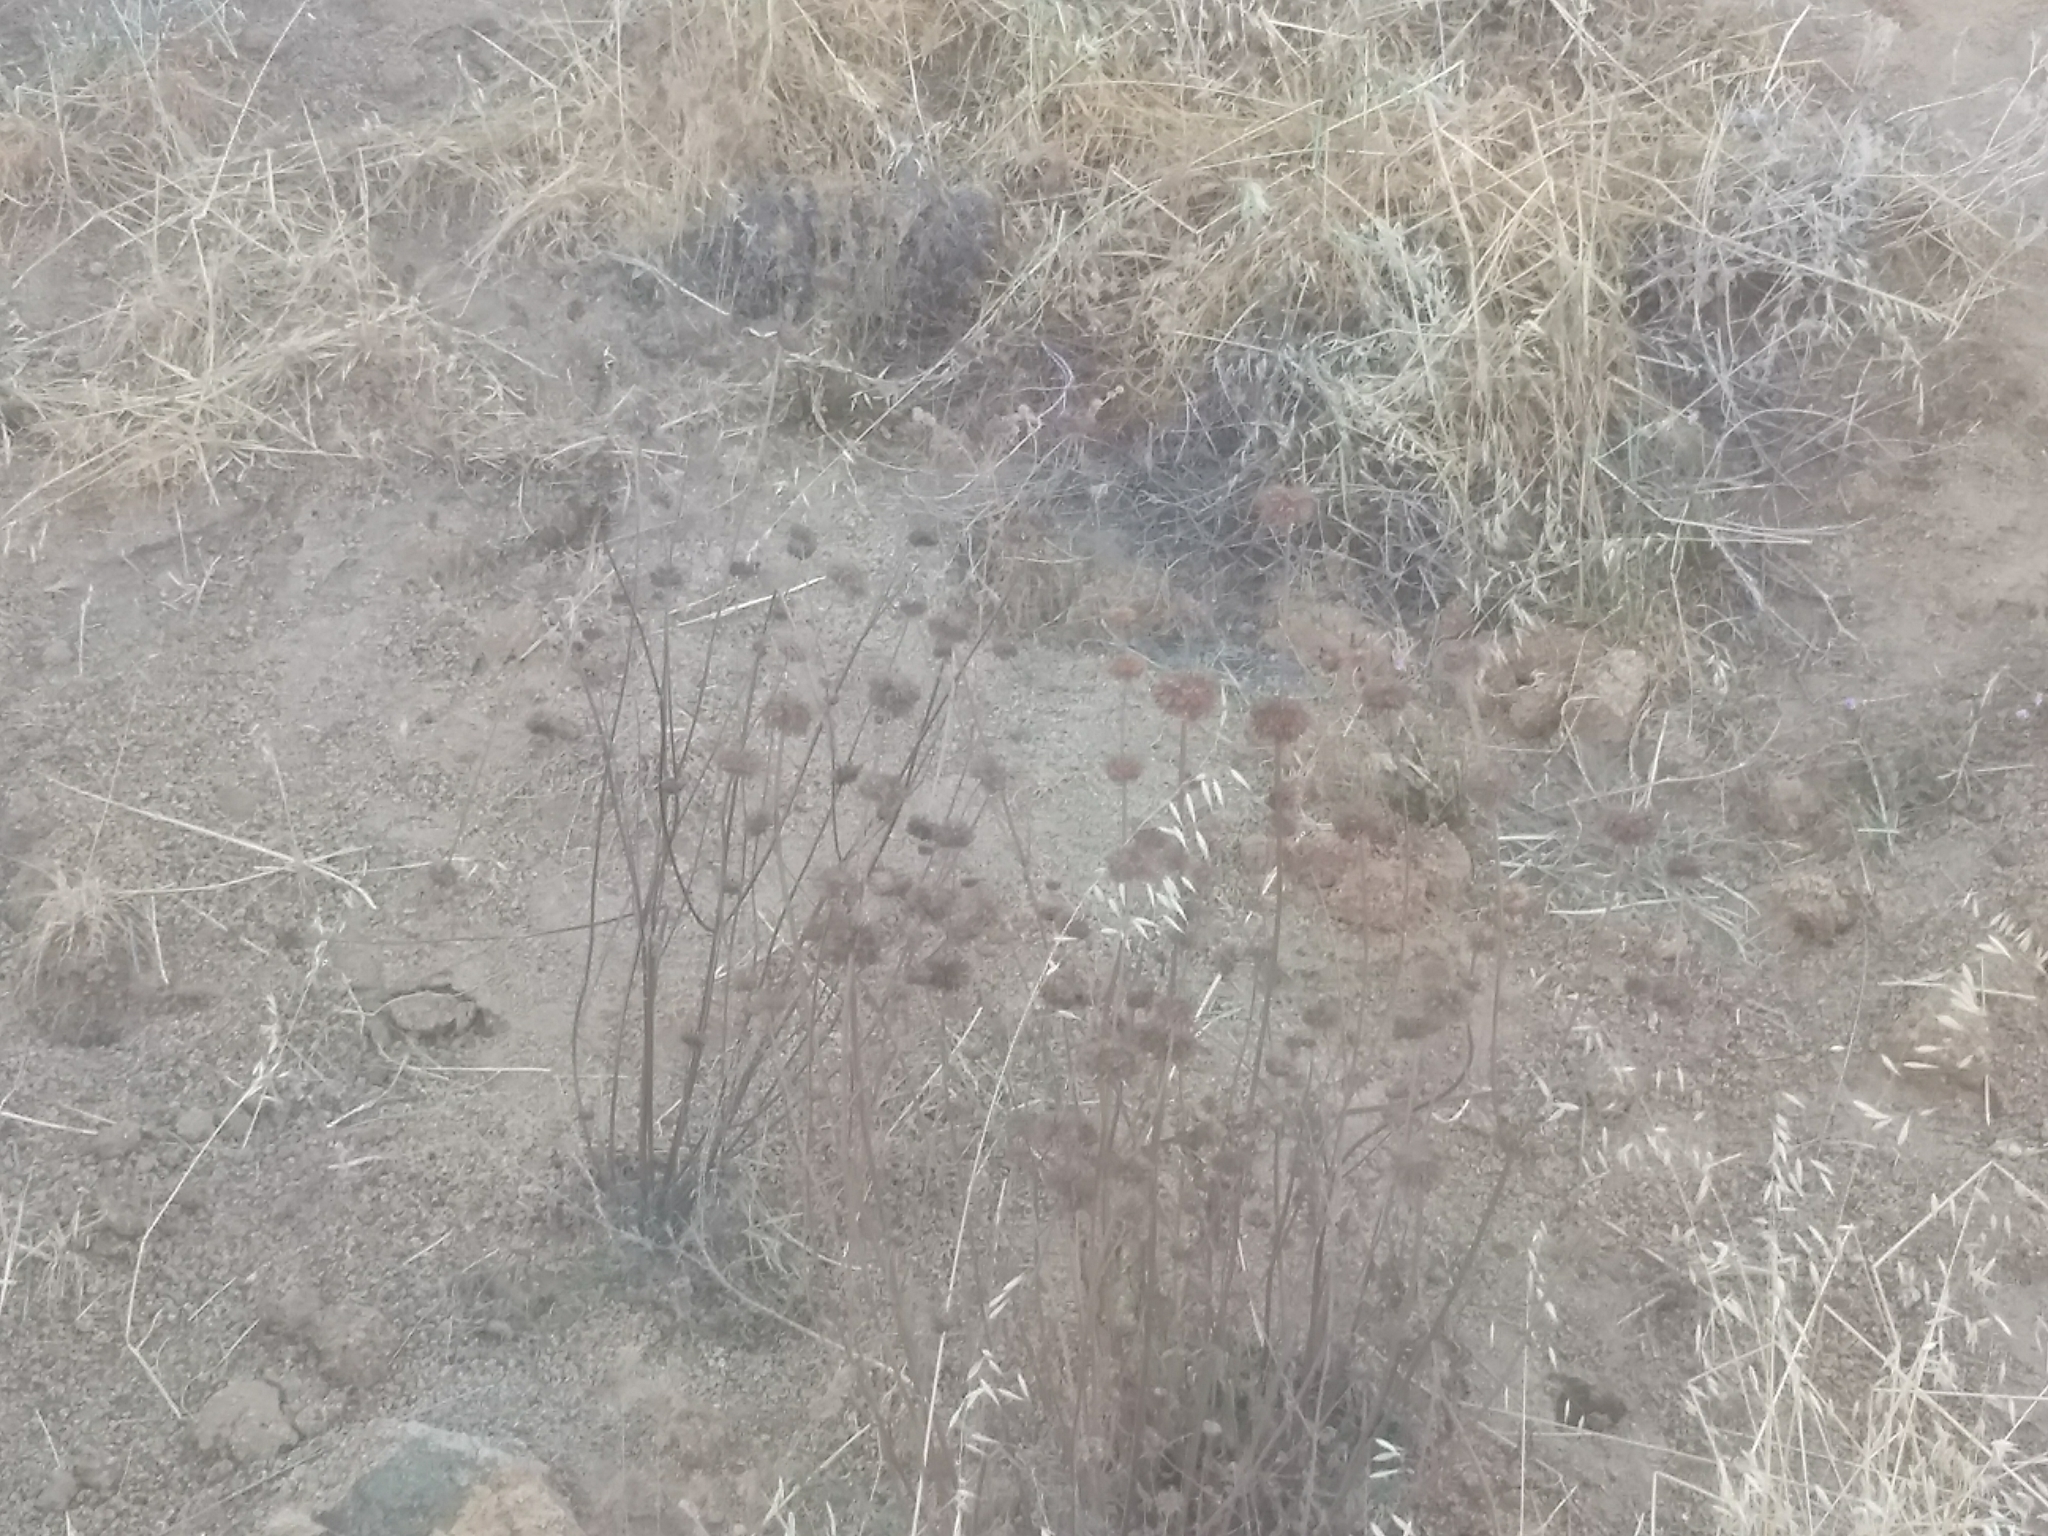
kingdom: Plantae
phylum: Tracheophyta
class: Magnoliopsida
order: Lamiales
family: Lamiaceae
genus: Salvia
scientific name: Salvia columbariae
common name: Chia
